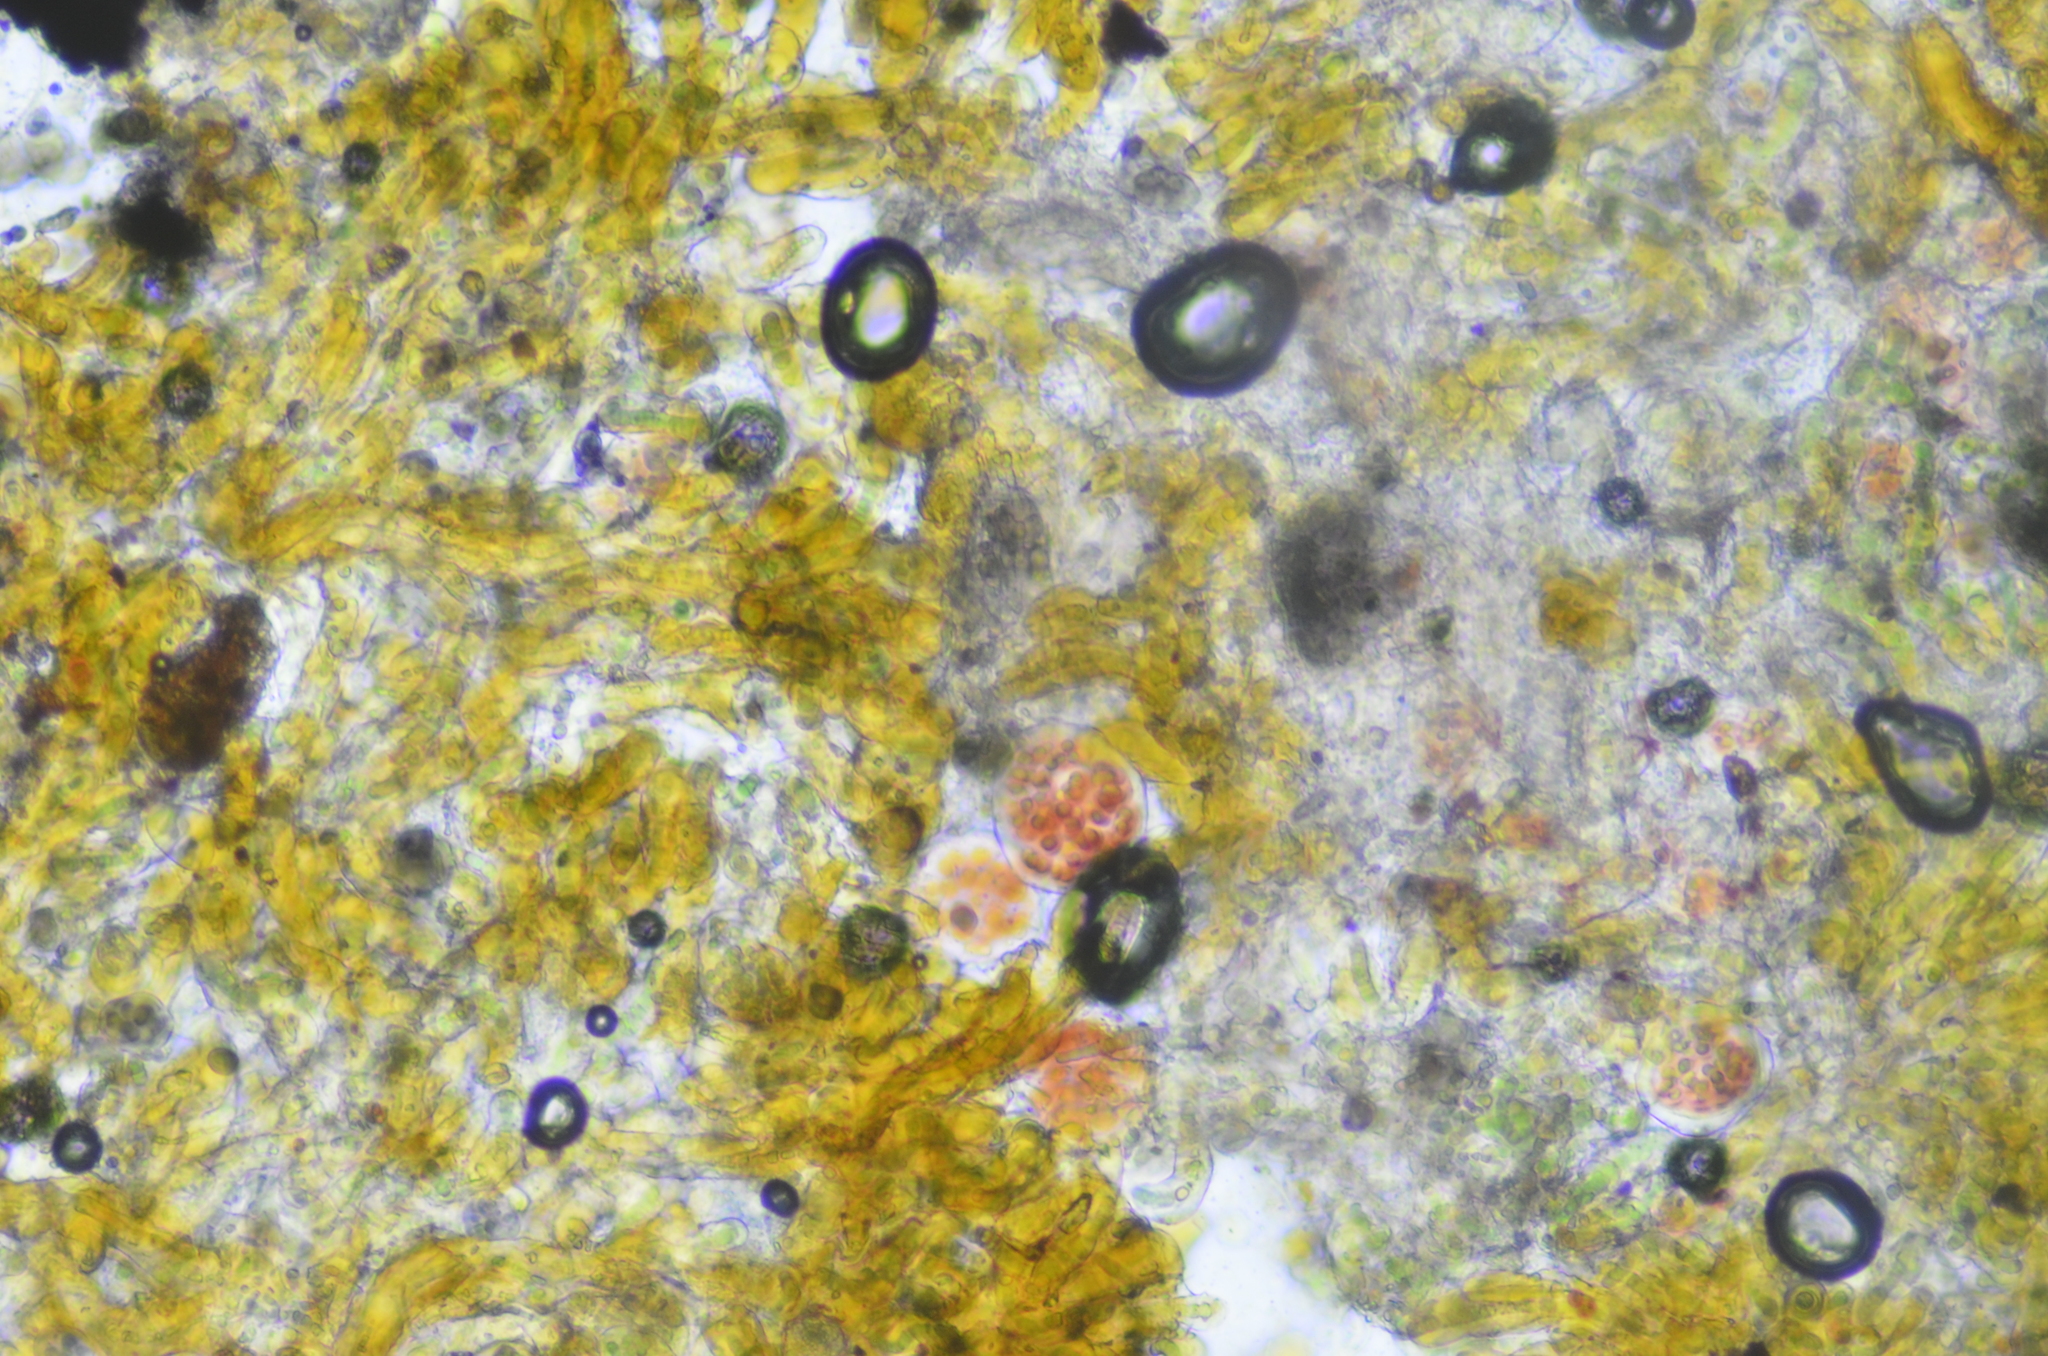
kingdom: Bacteria
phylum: Cyanobacteria
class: Cyanobacteriia
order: Cyanobacteriales
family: Chroococcidiopsidaceae
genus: Gloeocapsopsis
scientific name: Gloeocapsopsis magma
